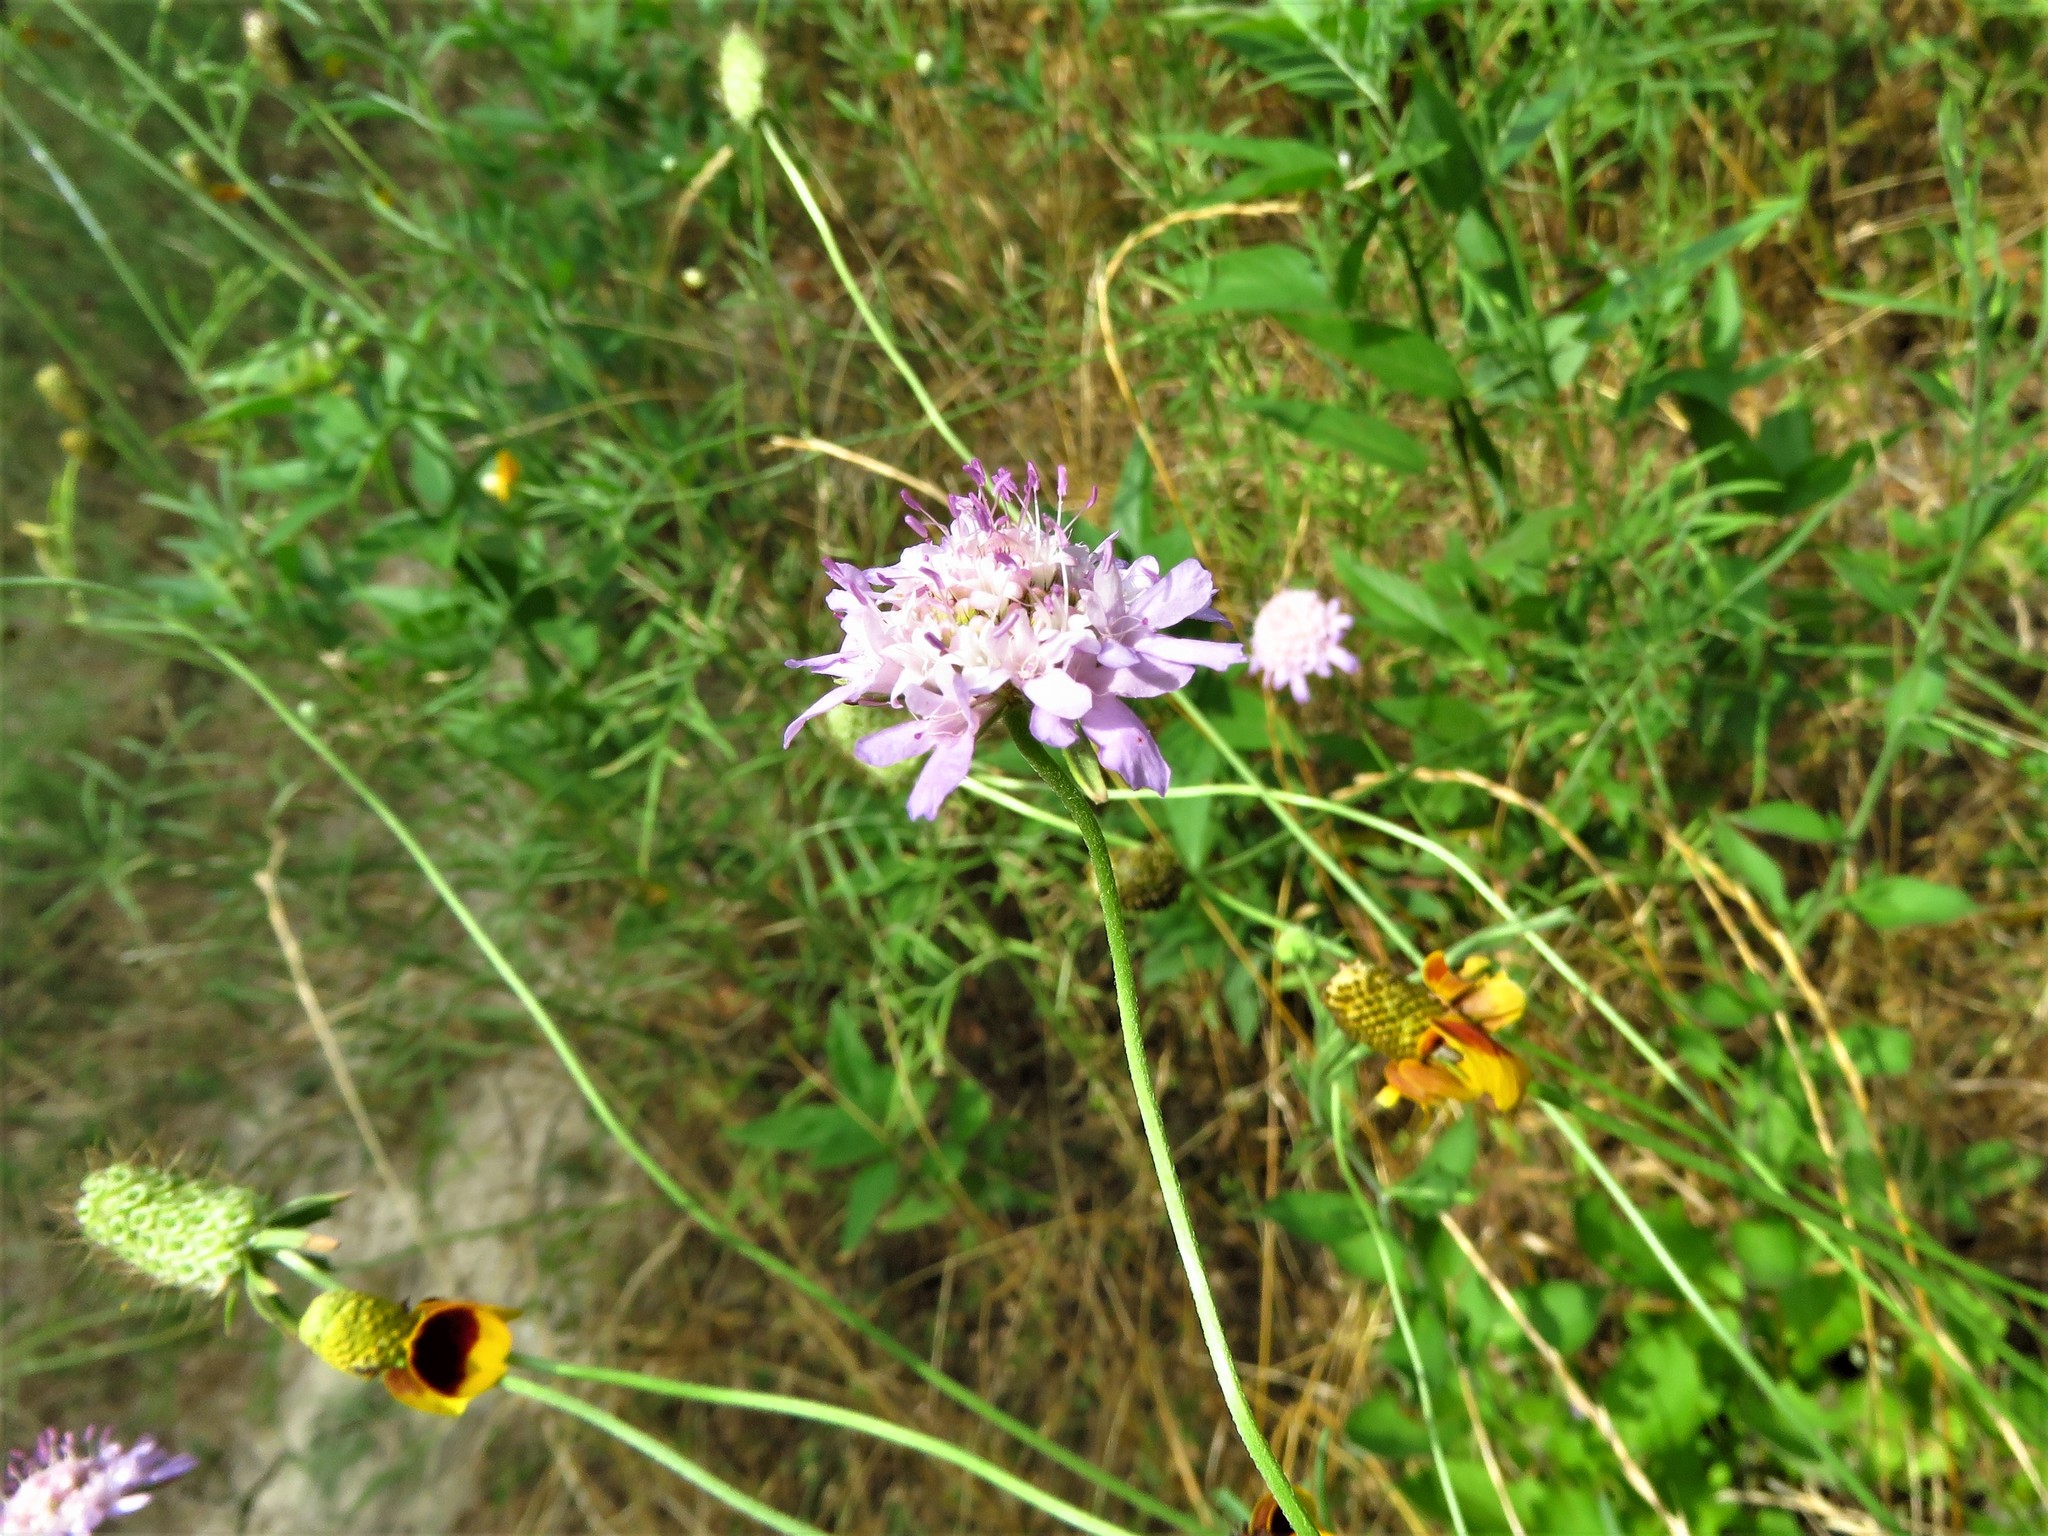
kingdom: Plantae
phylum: Tracheophyta
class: Magnoliopsida
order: Dipsacales
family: Caprifoliaceae
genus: Sixalix
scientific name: Sixalix atropurpurea
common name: Sweet scabious
